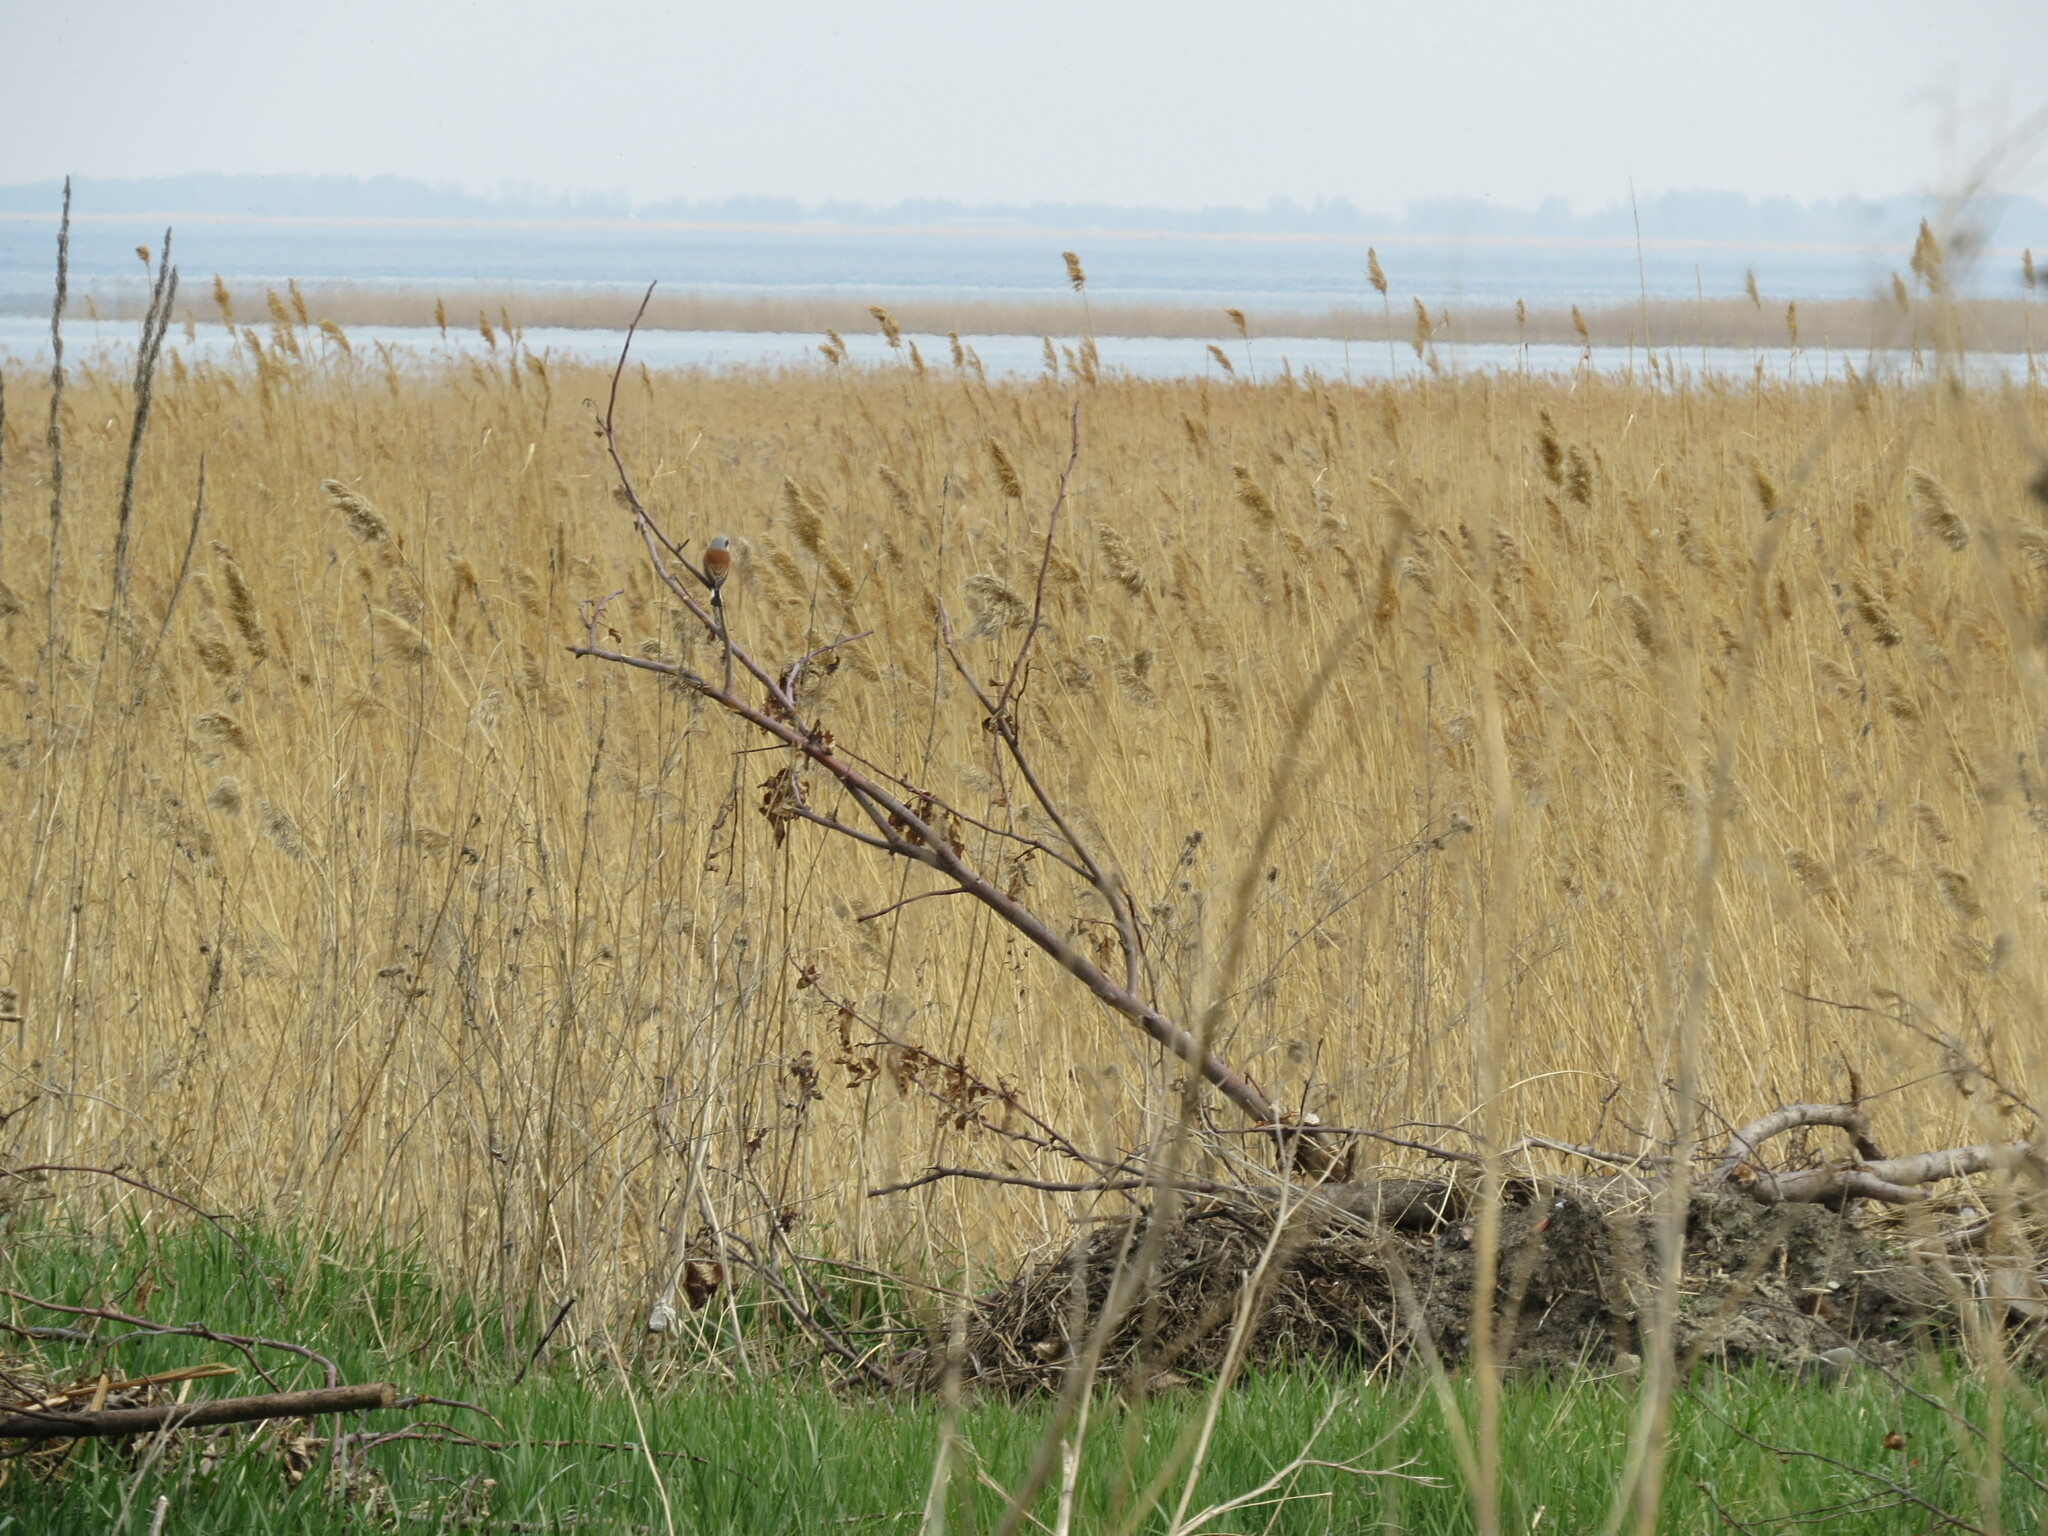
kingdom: Animalia
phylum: Chordata
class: Aves
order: Passeriformes
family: Laniidae
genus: Lanius
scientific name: Lanius collurio
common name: Red-backed shrike
